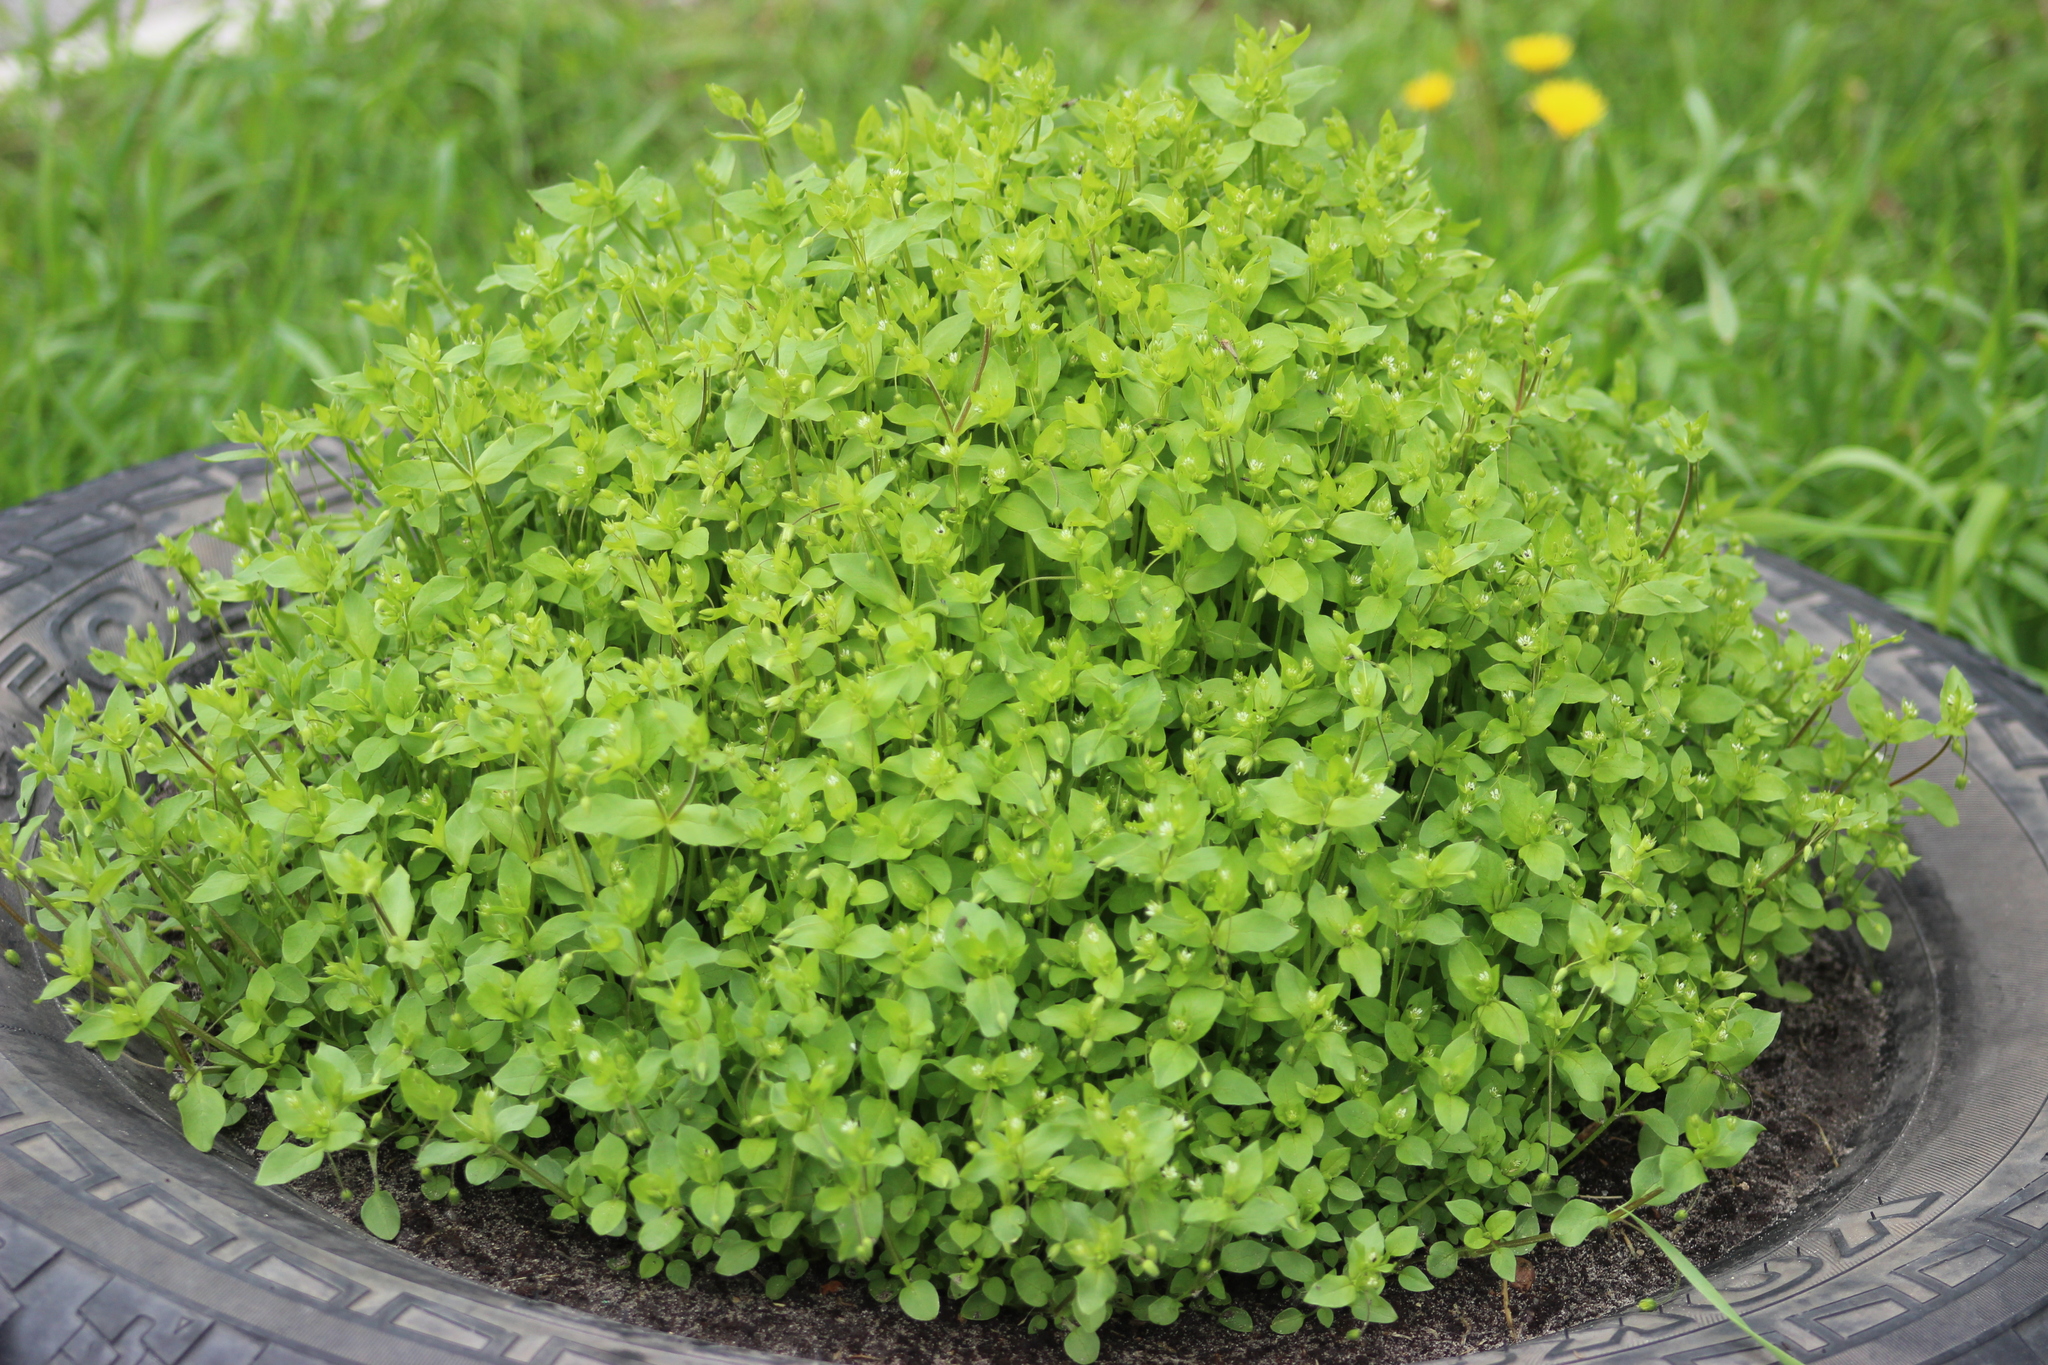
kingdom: Plantae
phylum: Tracheophyta
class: Magnoliopsida
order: Caryophyllales
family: Caryophyllaceae
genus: Stellaria
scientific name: Stellaria media
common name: Common chickweed
